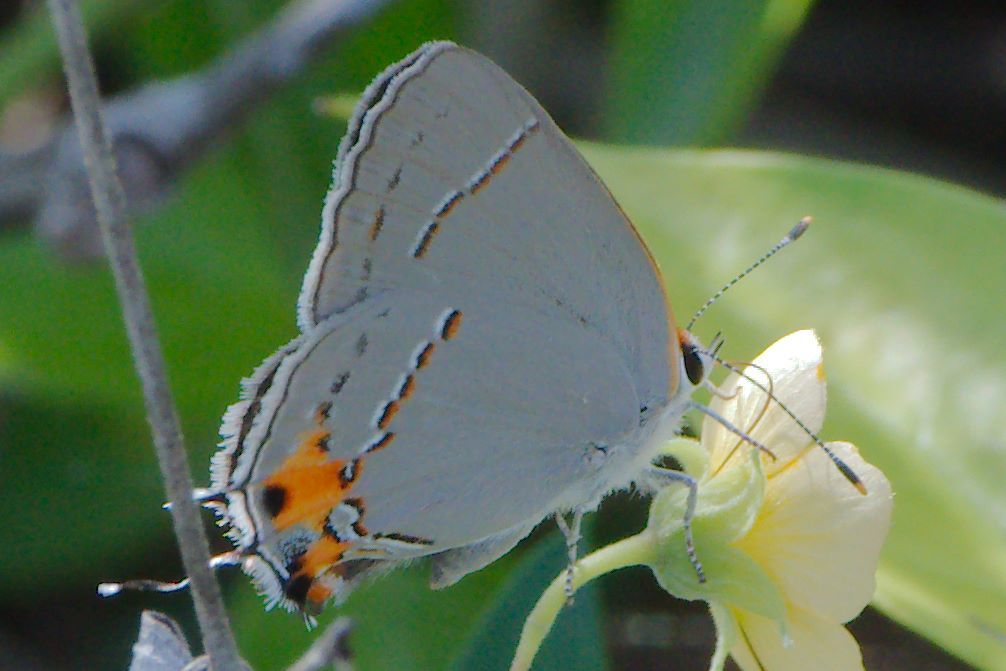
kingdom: Animalia
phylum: Arthropoda
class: Insecta
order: Lepidoptera
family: Lycaenidae
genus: Strymon
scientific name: Strymon melinus
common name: Gray hairstreak
